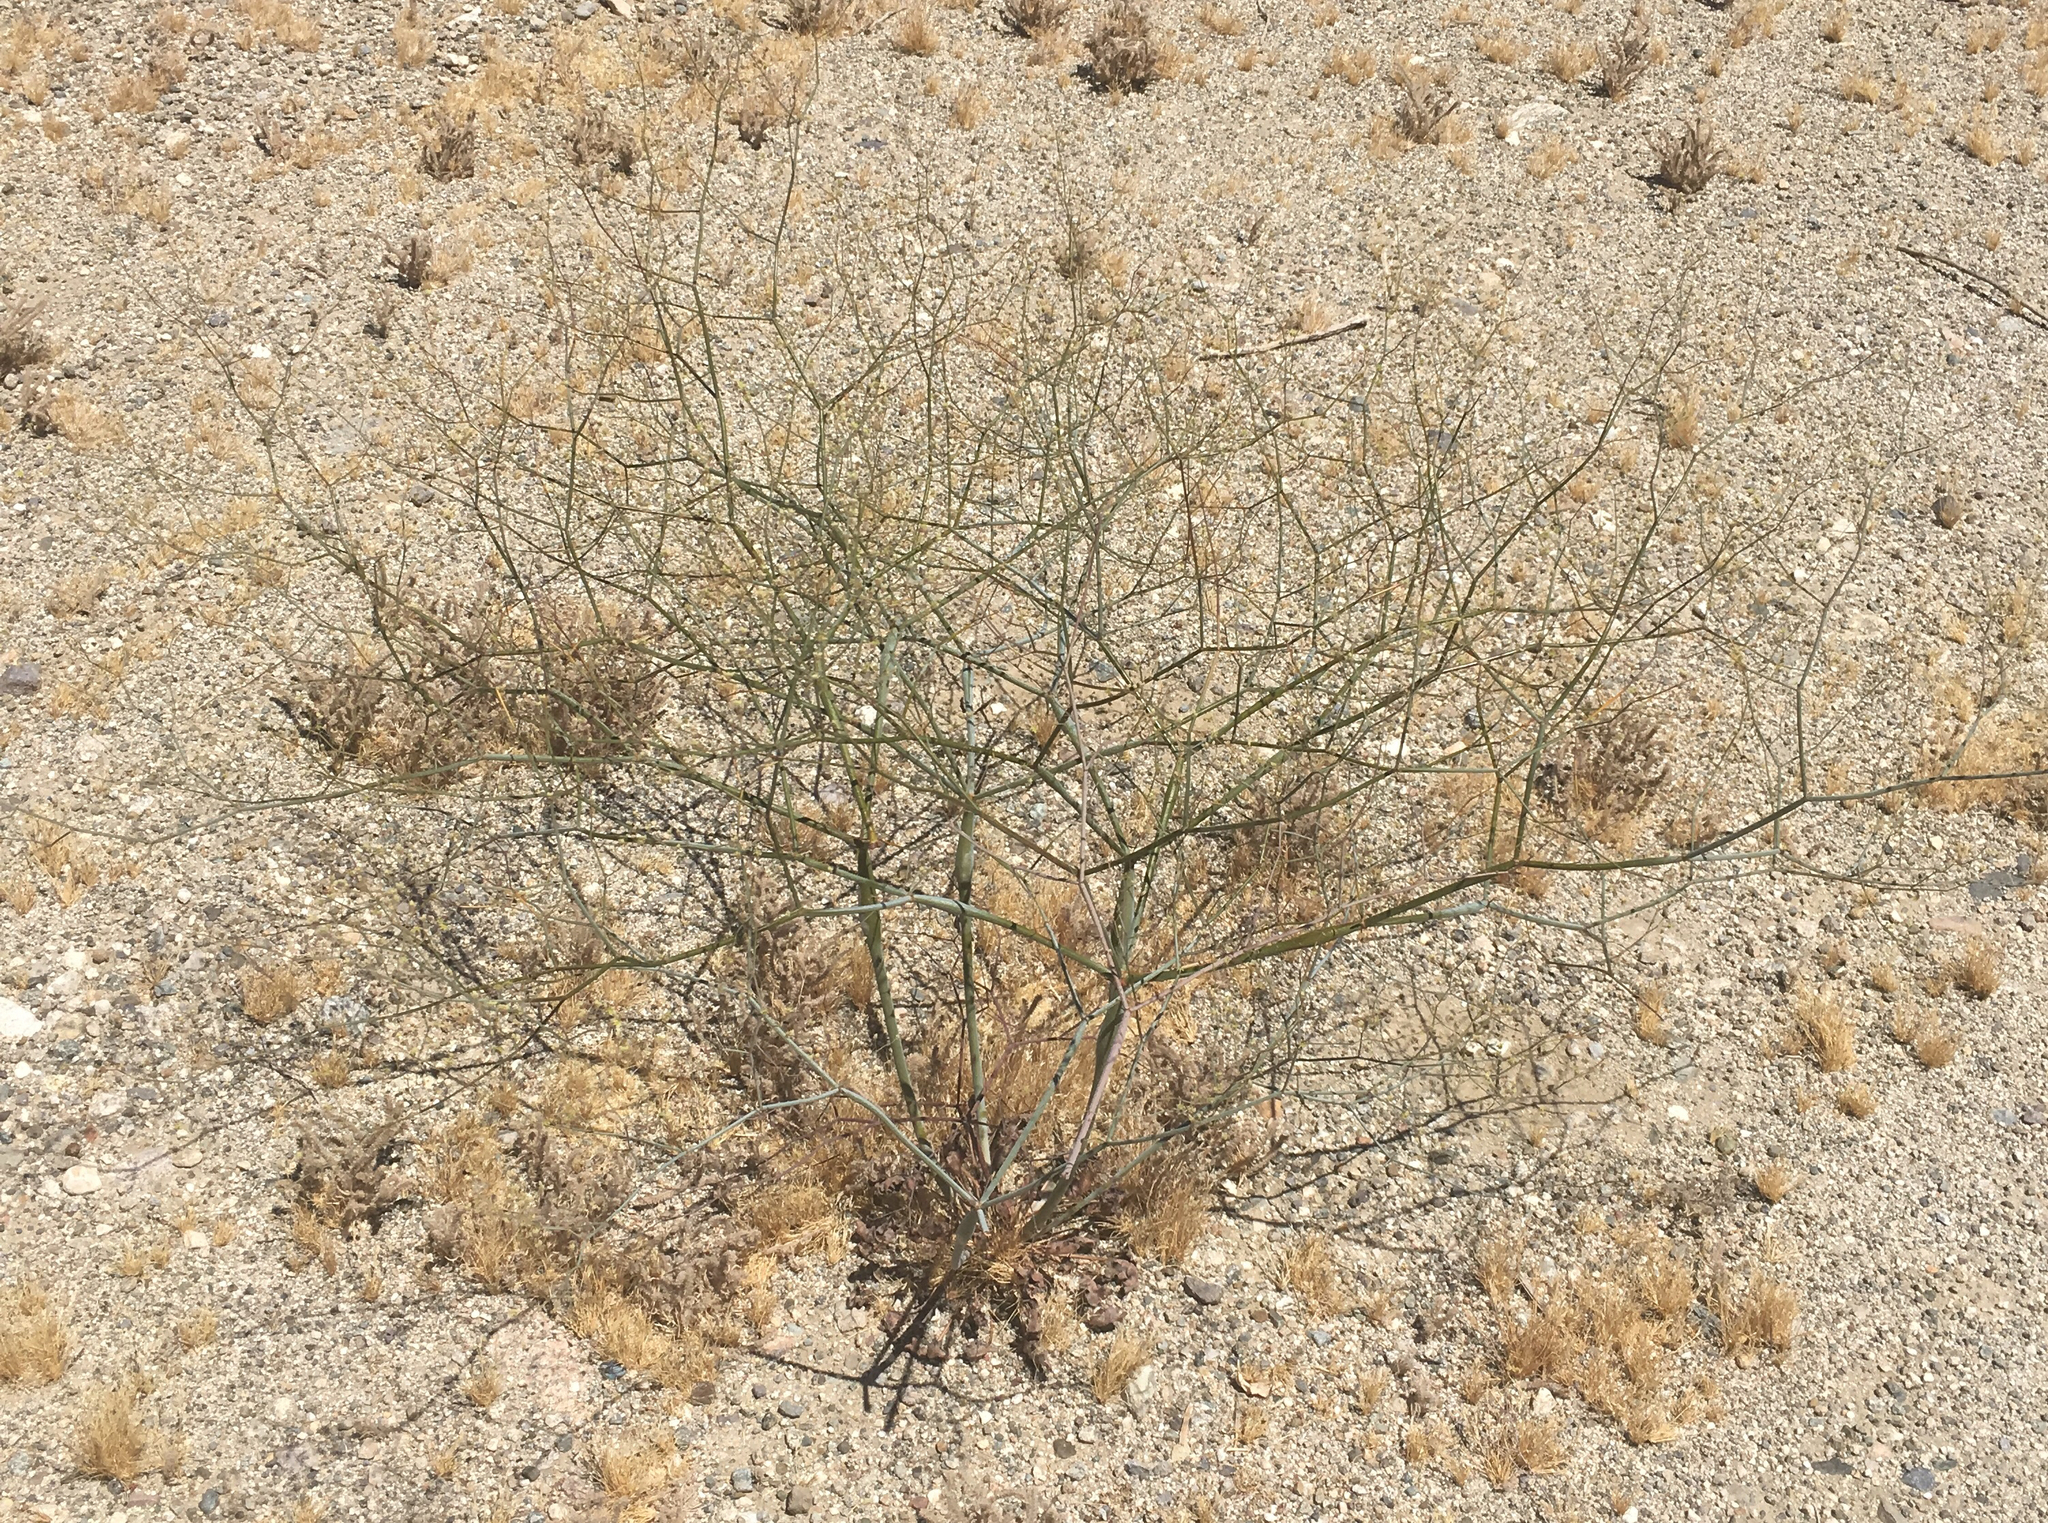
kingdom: Plantae
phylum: Tracheophyta
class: Magnoliopsida
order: Caryophyllales
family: Polygonaceae
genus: Eriogonum
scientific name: Eriogonum inflatum
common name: Desert trumpet
